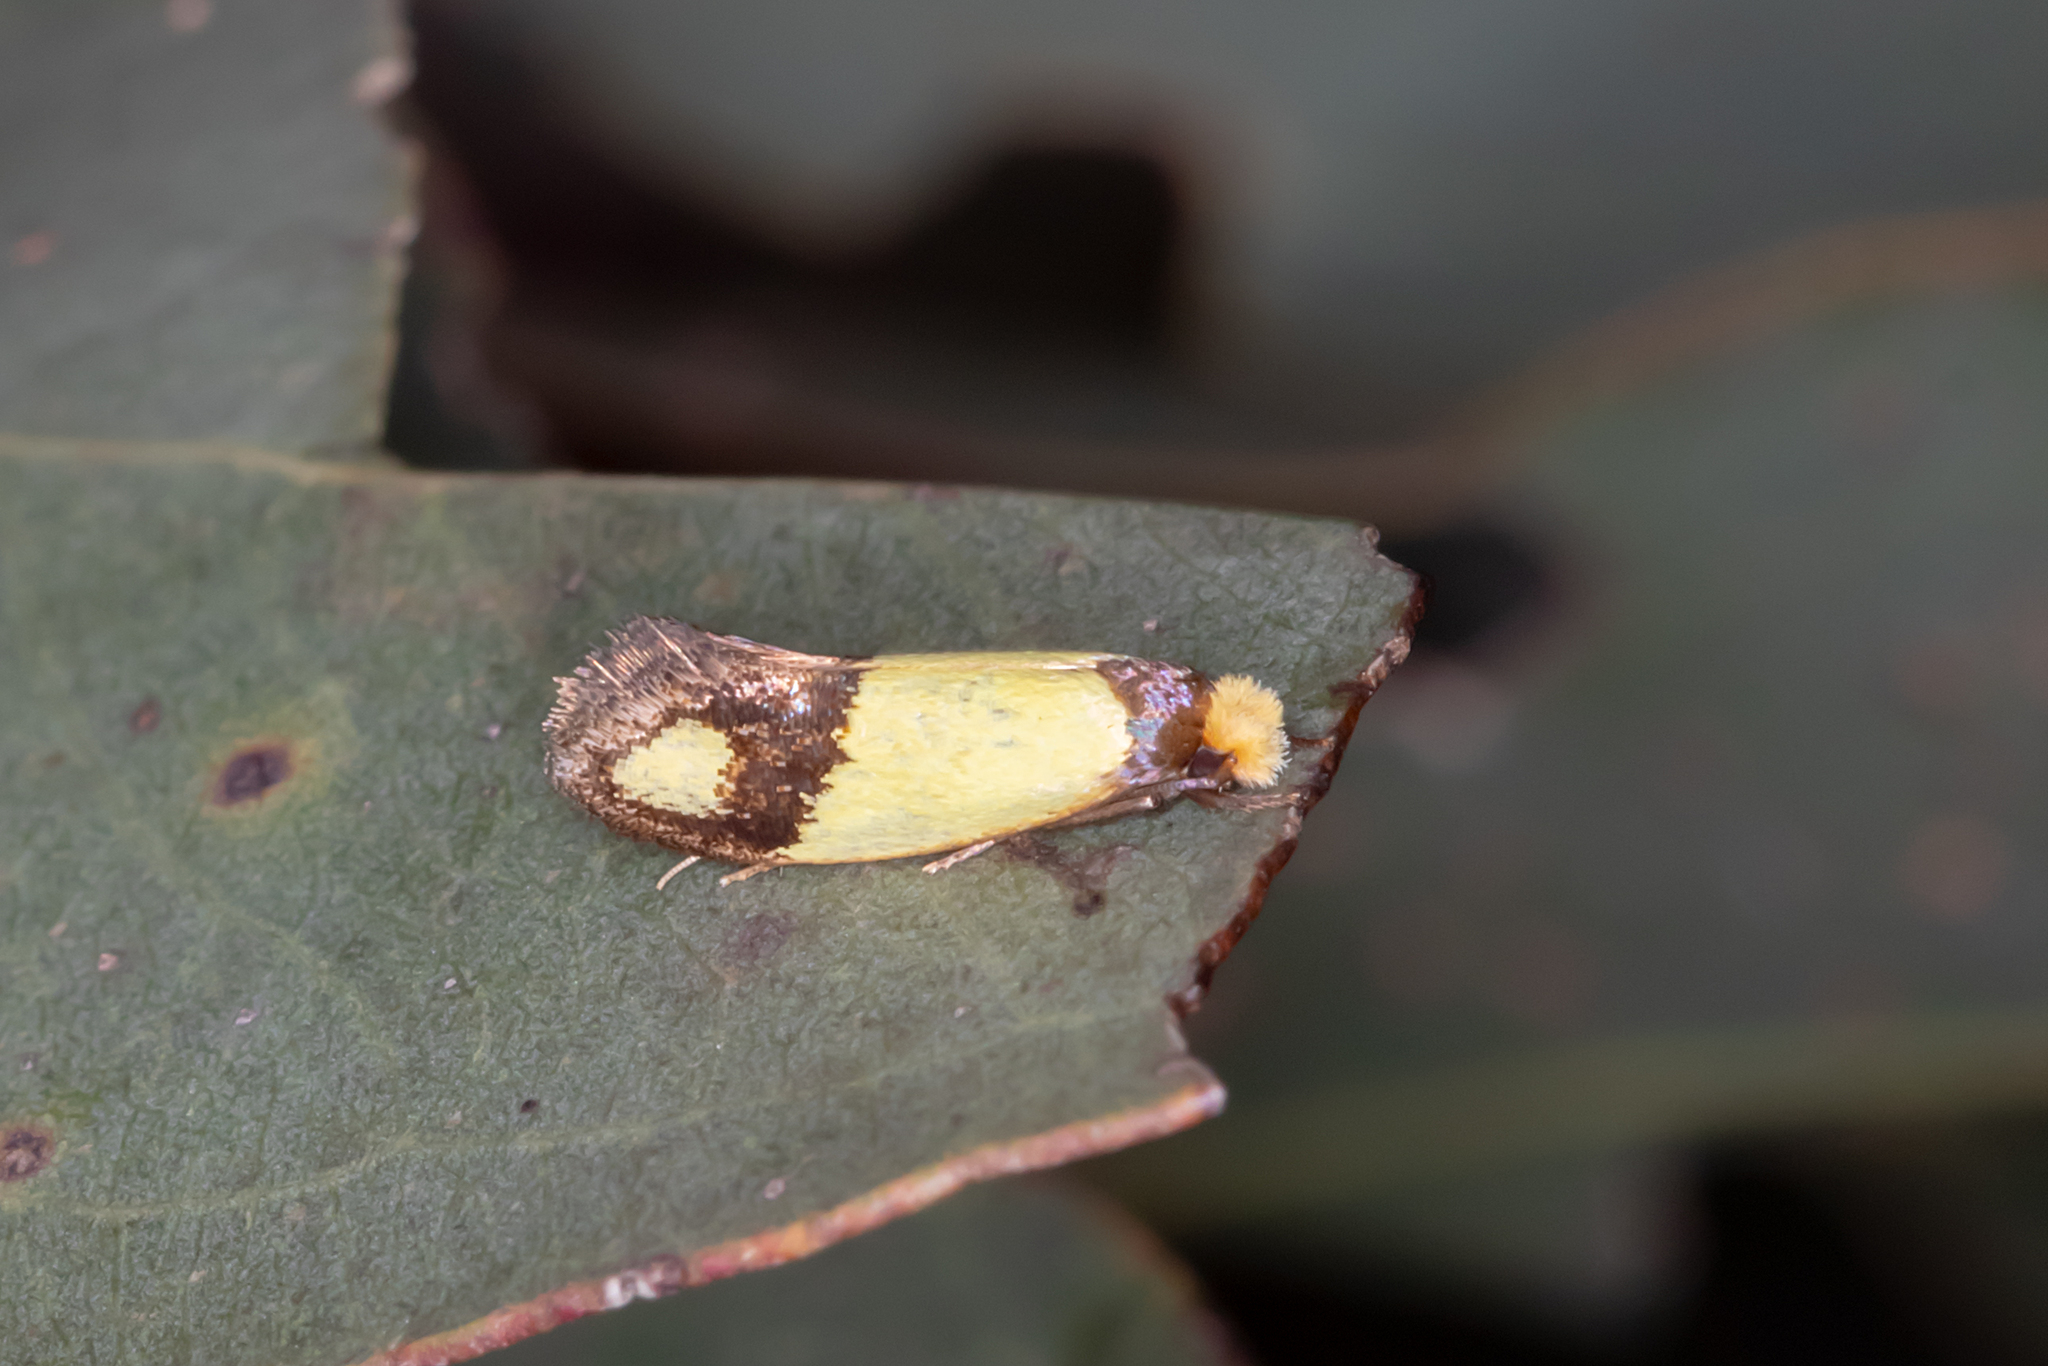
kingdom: Animalia
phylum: Arthropoda
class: Insecta
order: Lepidoptera
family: Tineidae
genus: Edosa
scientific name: Edosa fraudulens
